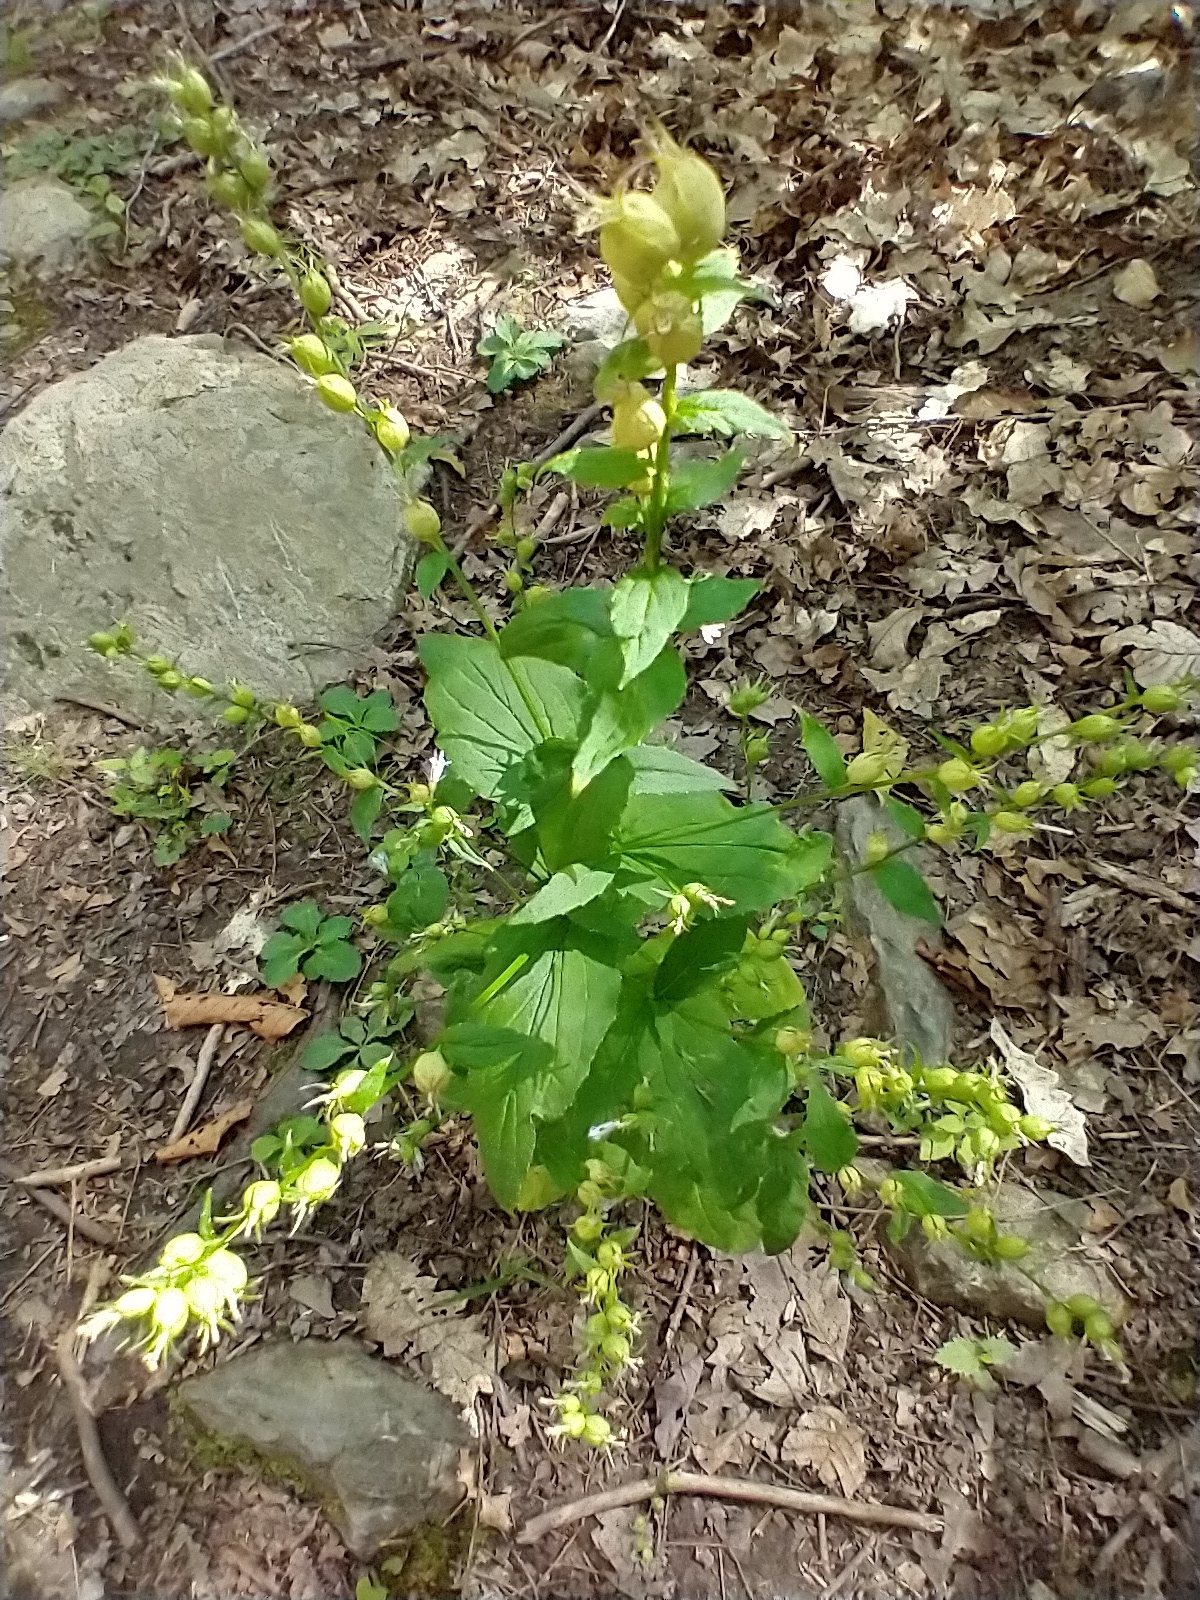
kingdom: Plantae
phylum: Tracheophyta
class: Magnoliopsida
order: Asterales
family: Campanulaceae
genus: Lobelia
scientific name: Lobelia inflata
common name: Indian tobacco
